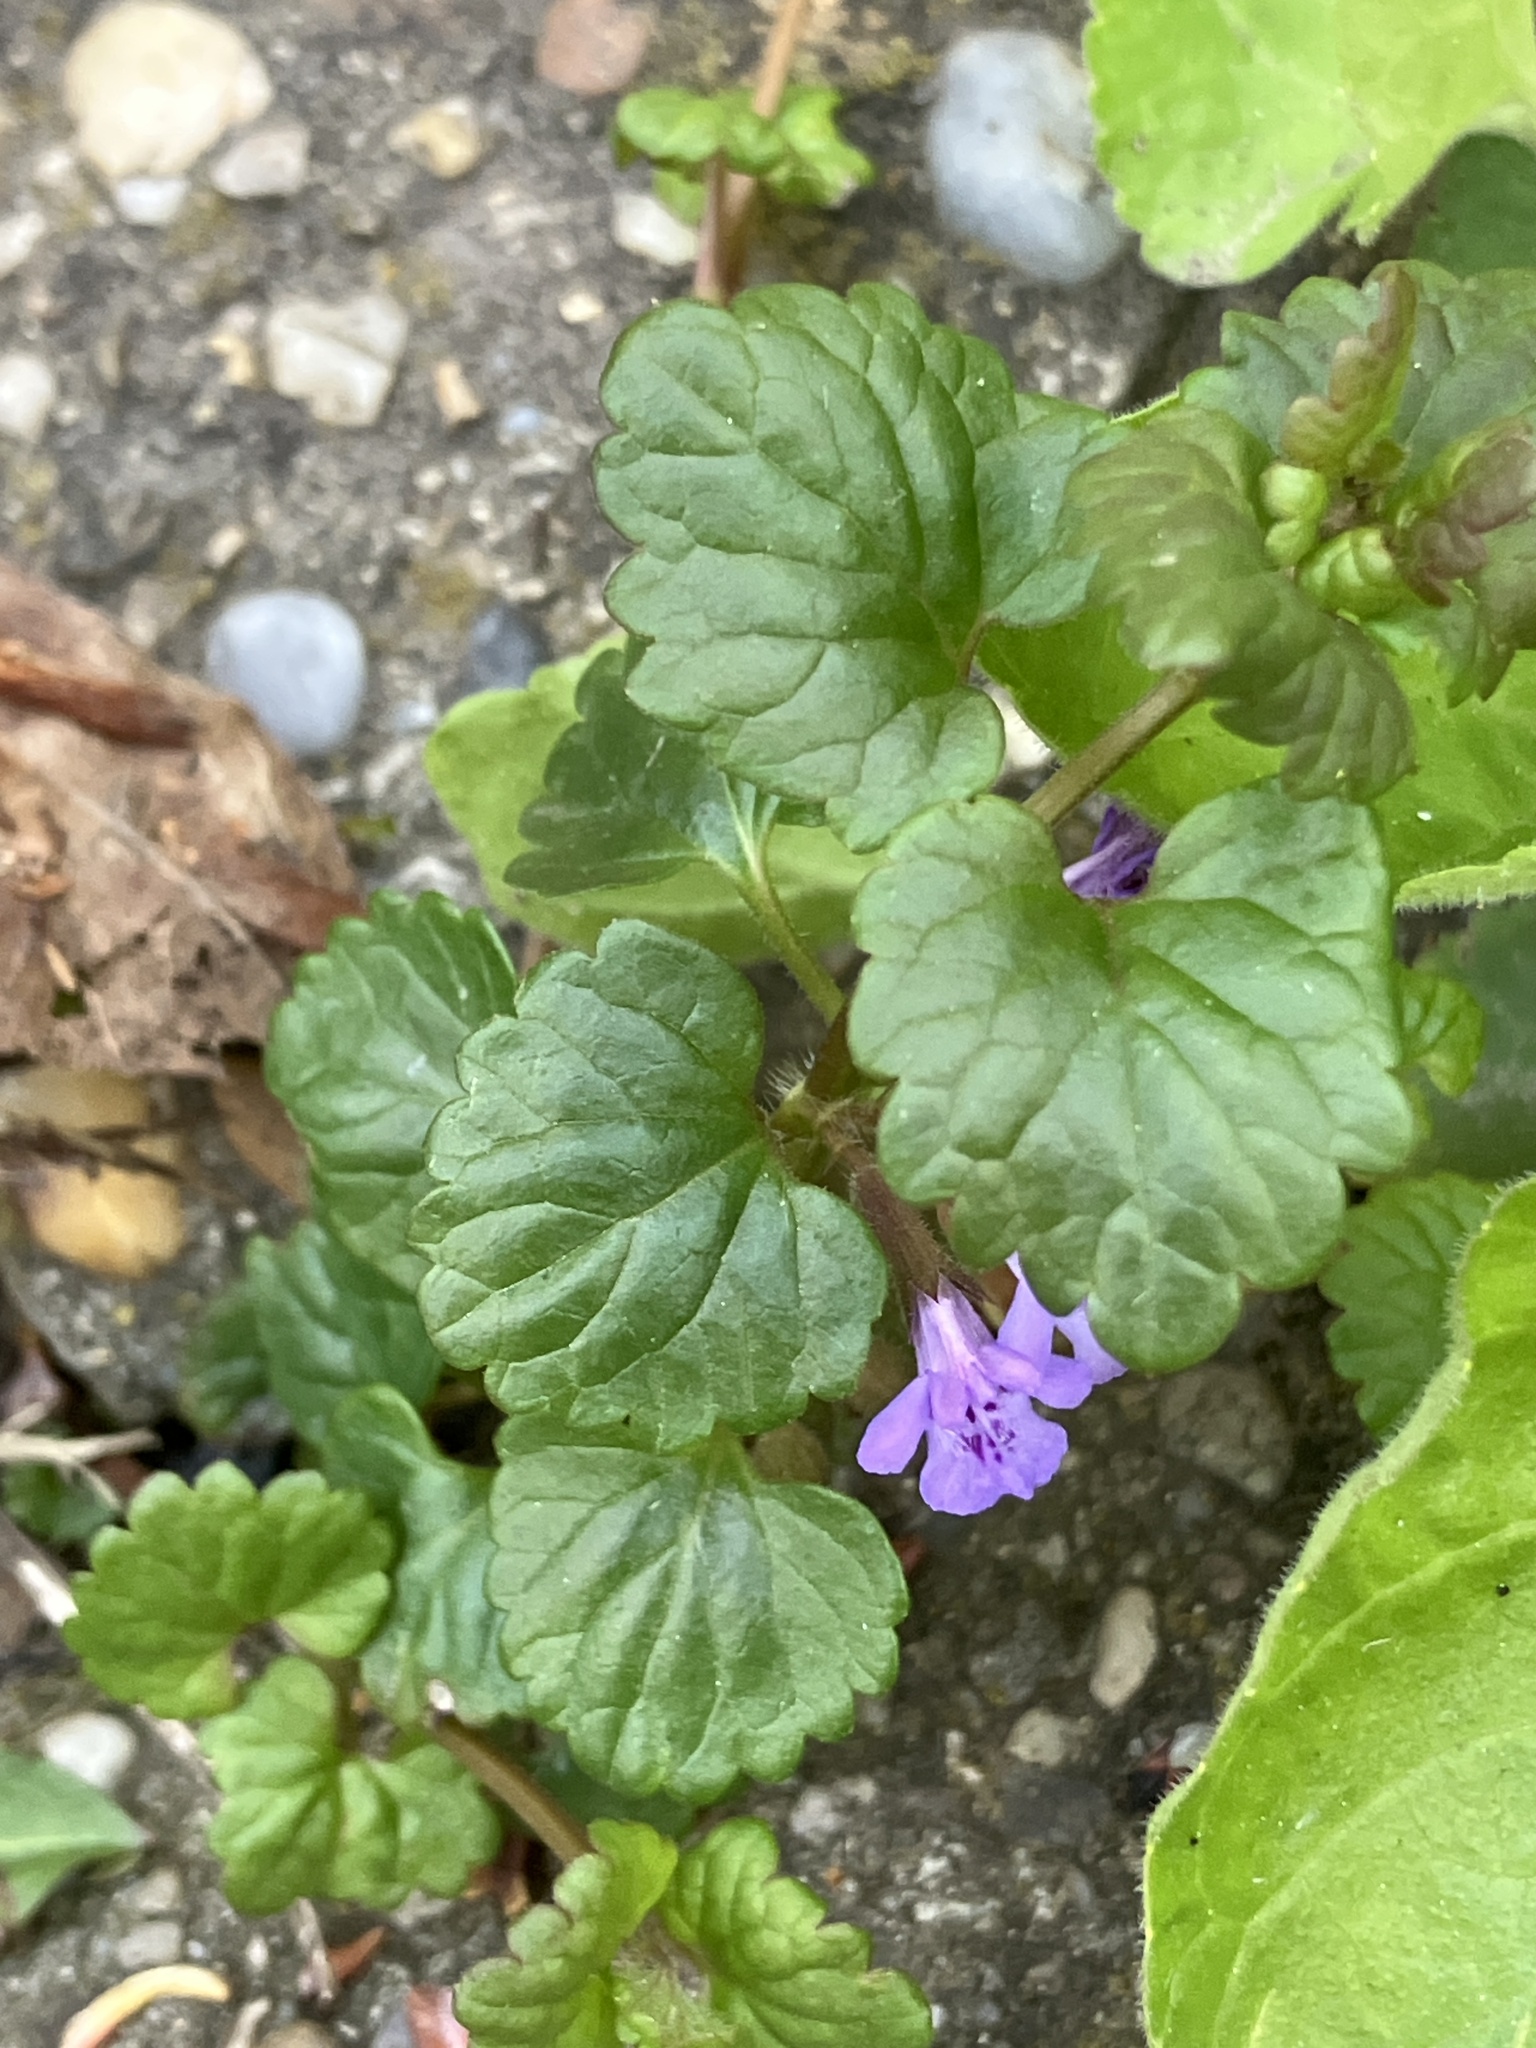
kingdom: Plantae
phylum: Tracheophyta
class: Magnoliopsida
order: Lamiales
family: Lamiaceae
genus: Glechoma
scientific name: Glechoma hederacea
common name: Ground ivy
